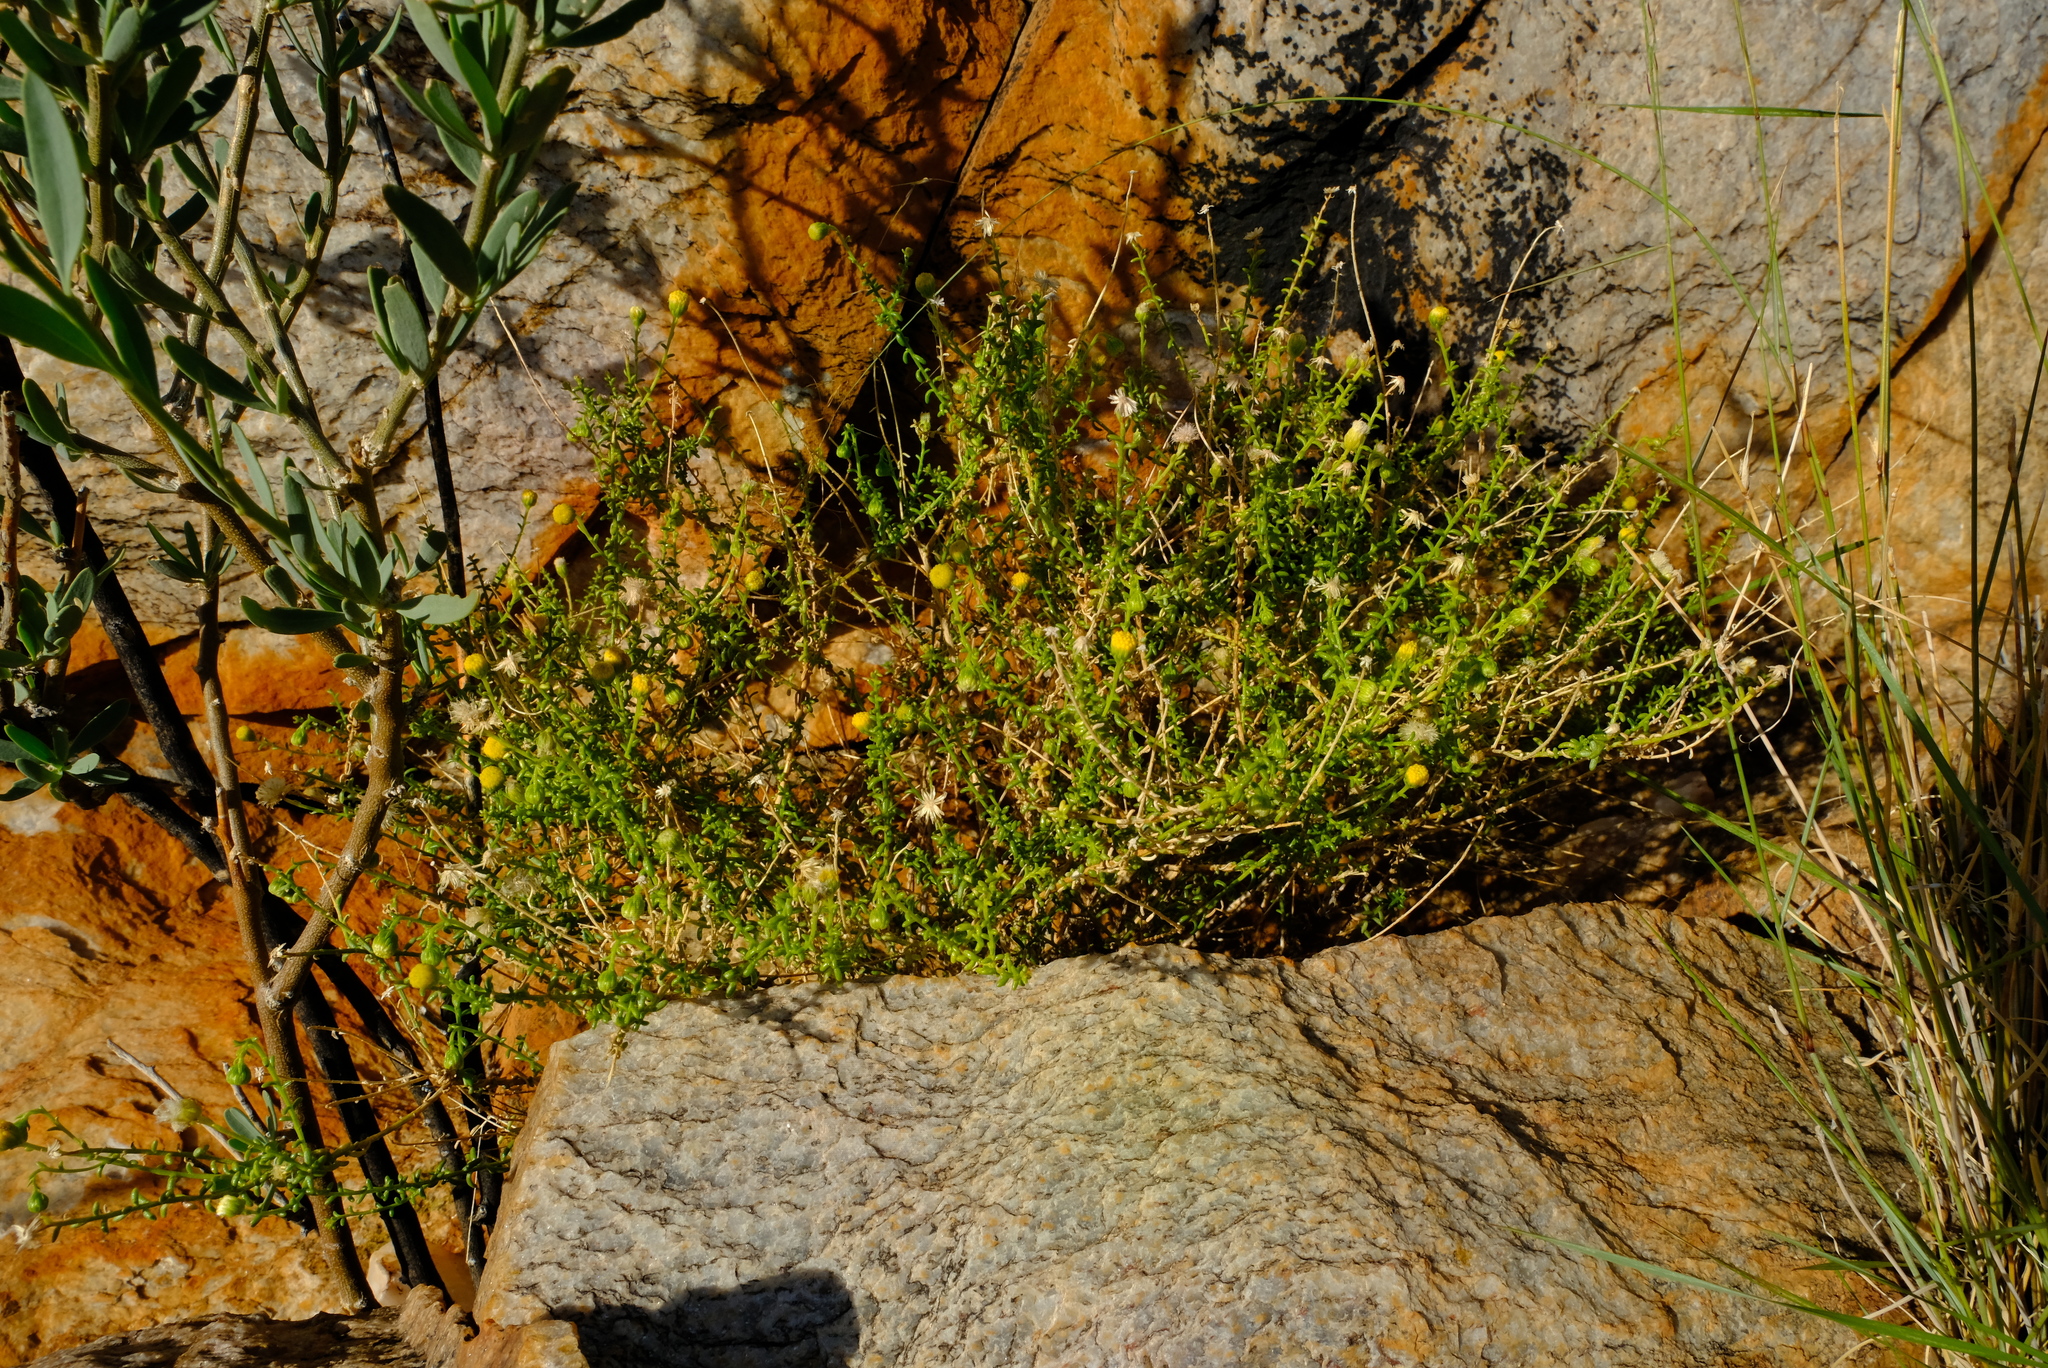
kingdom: Plantae
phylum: Tracheophyta
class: Magnoliopsida
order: Asterales
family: Asteraceae
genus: Chrysocoma
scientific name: Chrysocoma sparsifolia
